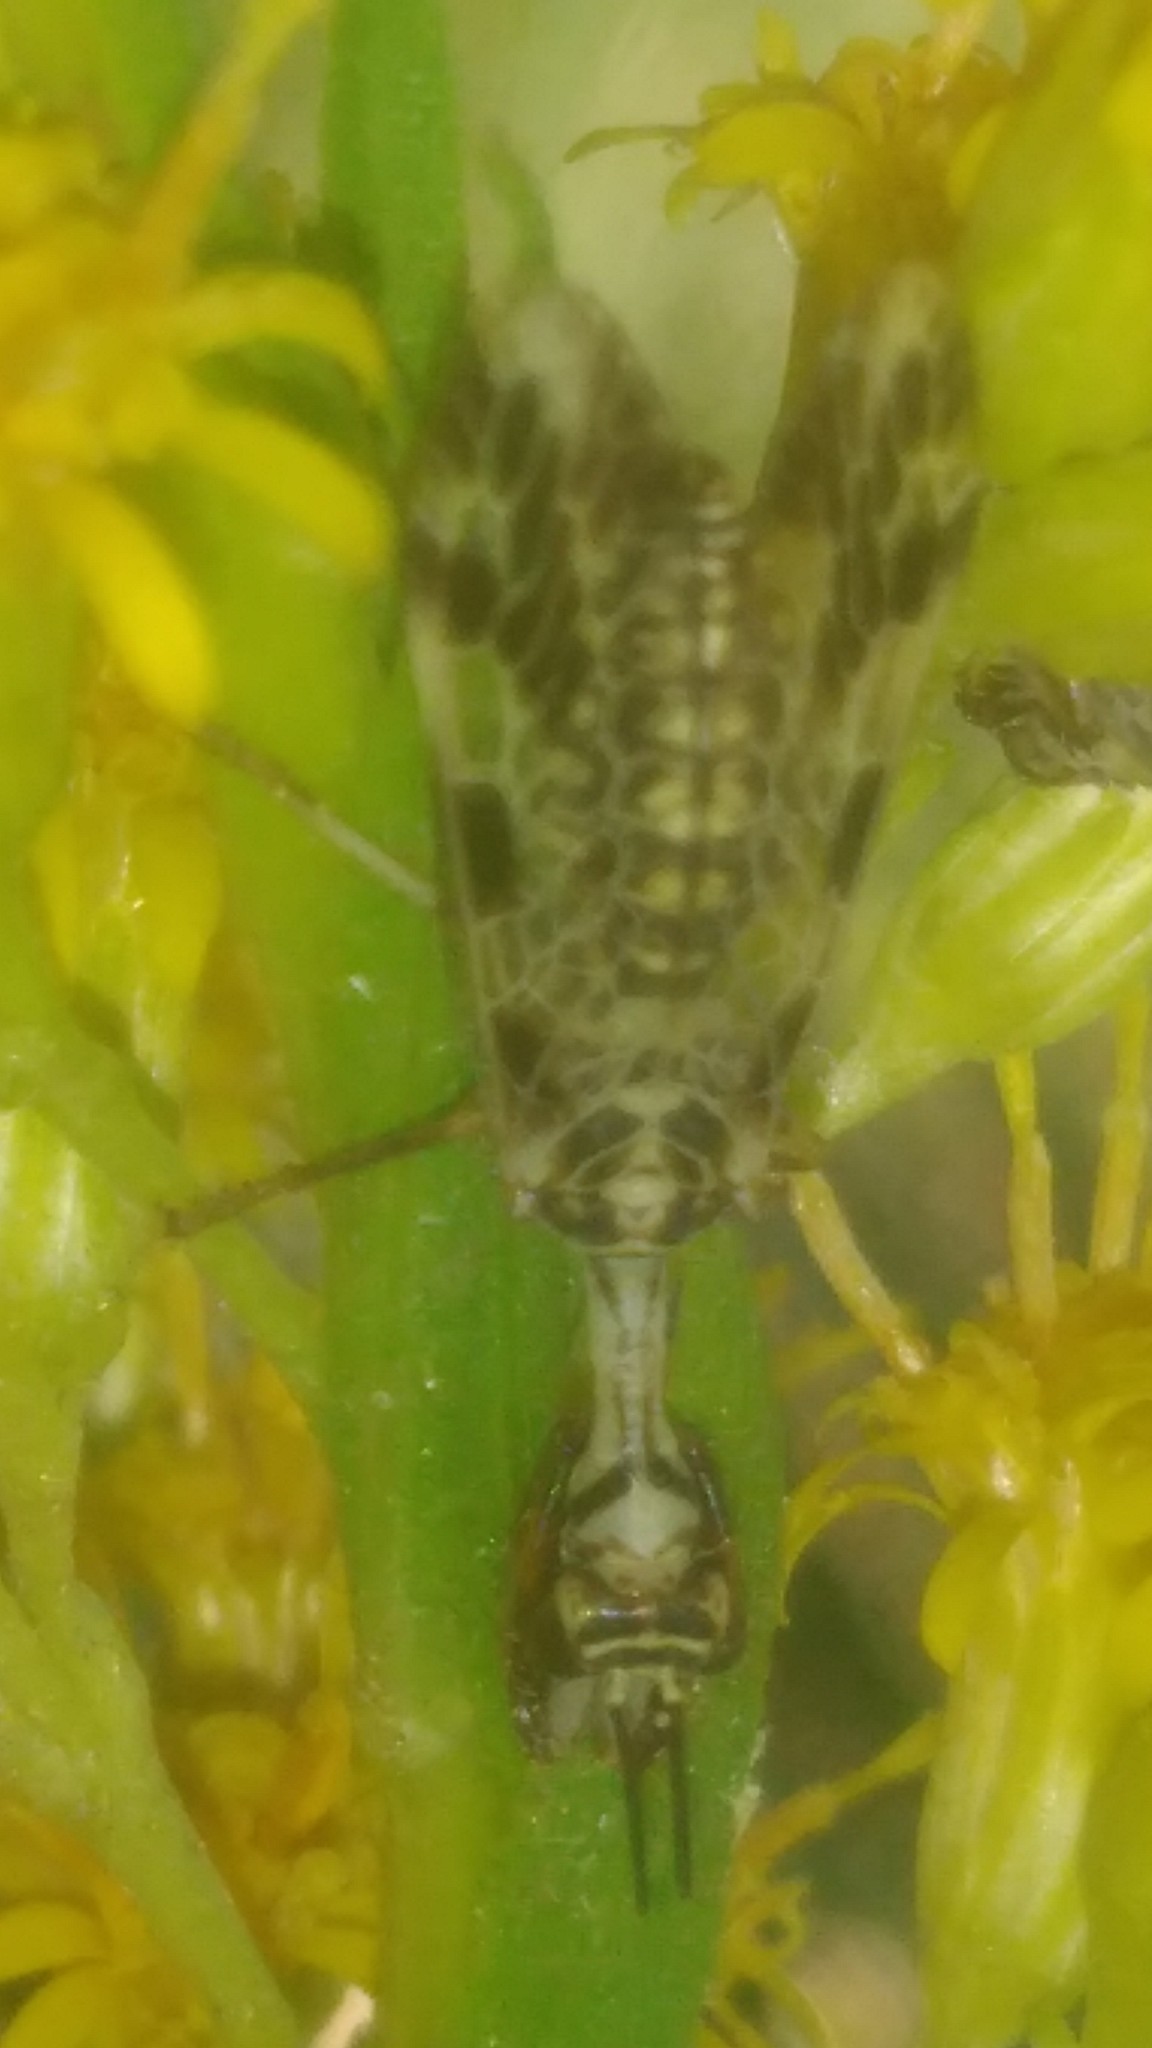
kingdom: Animalia
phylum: Arthropoda
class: Insecta
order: Neuroptera
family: Mantispidae
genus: Paramantispa
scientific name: Paramantispa ambusta
